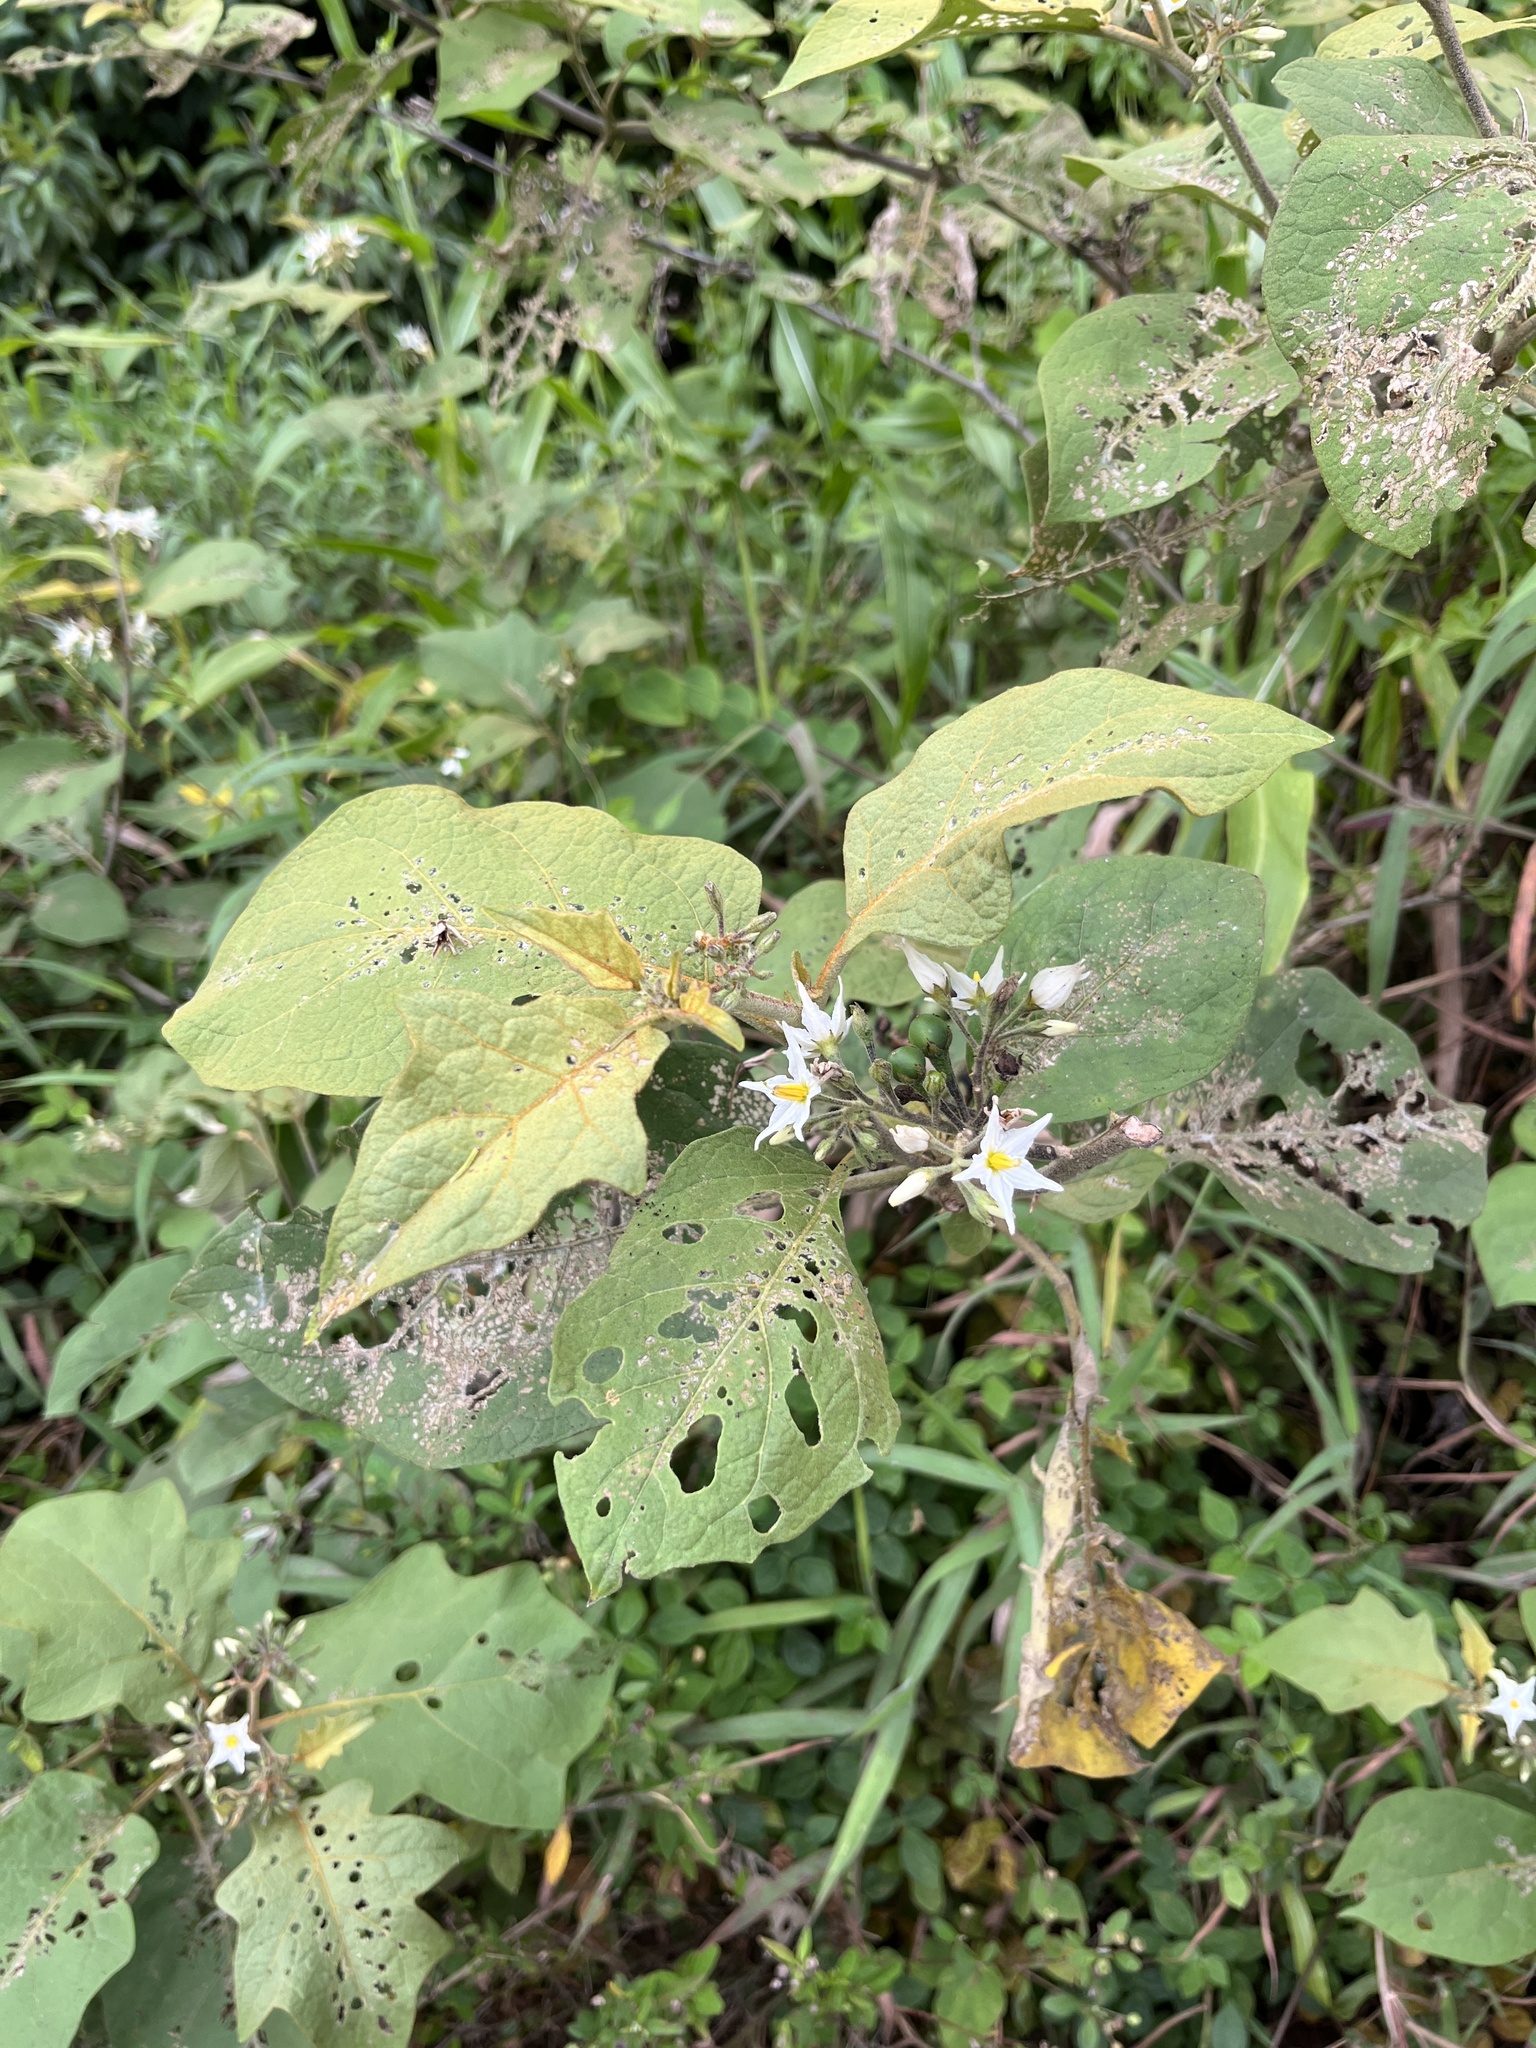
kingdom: Plantae
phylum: Tracheophyta
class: Magnoliopsida
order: Solanales
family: Solanaceae
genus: Solanum
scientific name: Solanum torvum
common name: Turkey berry
